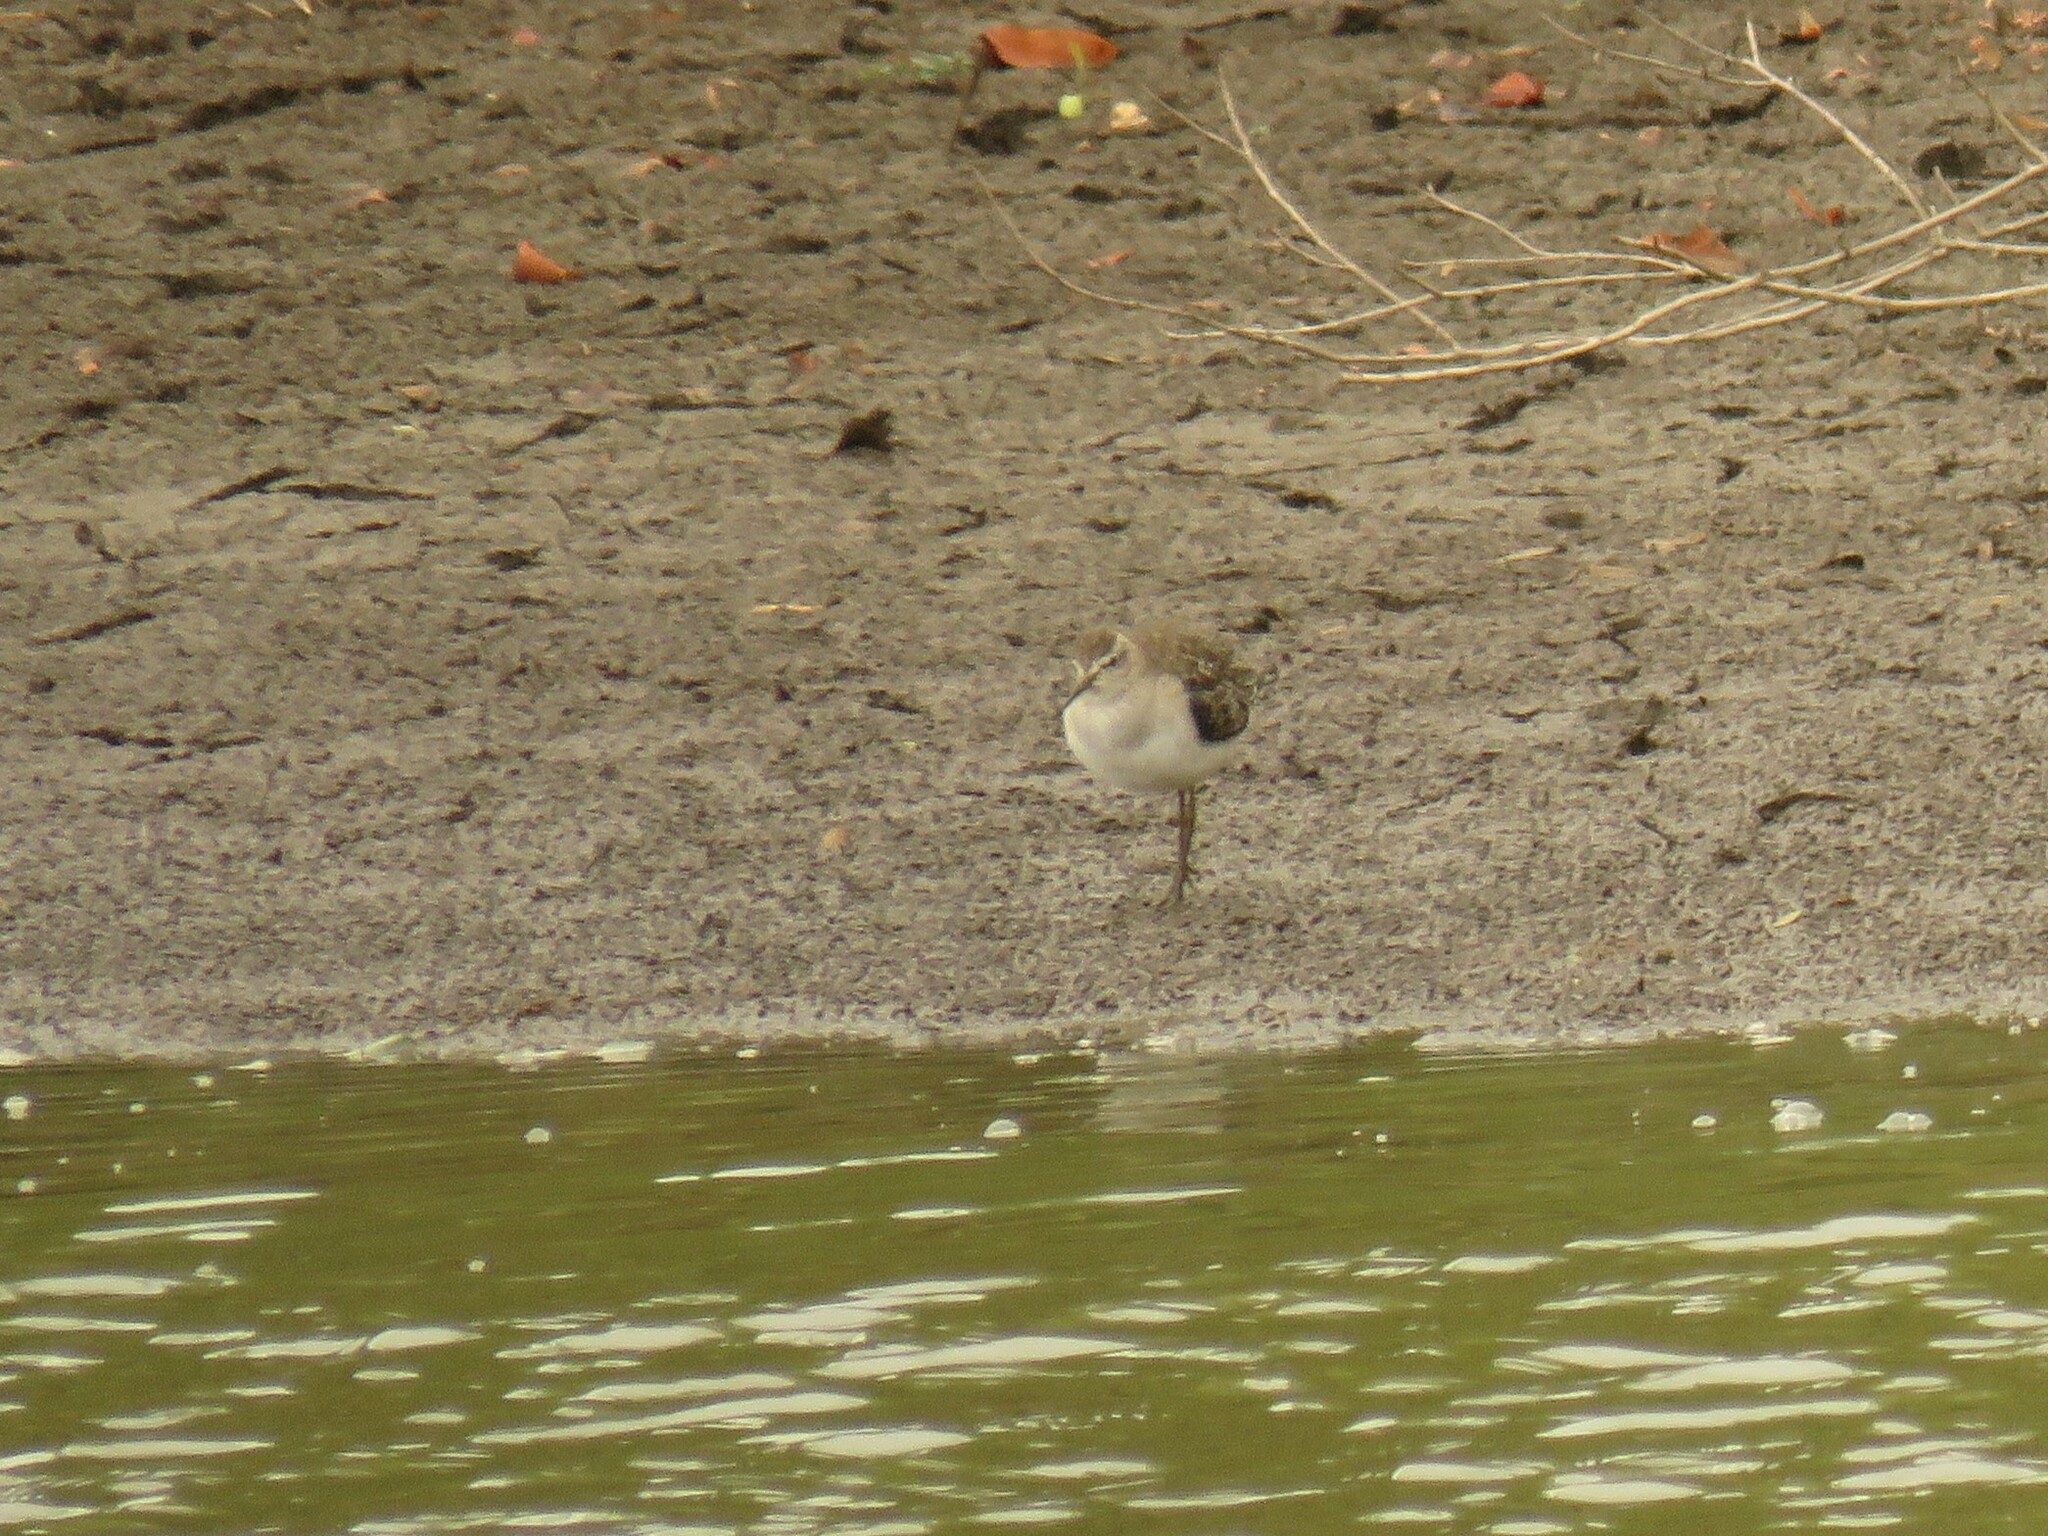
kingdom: Animalia
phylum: Chordata
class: Aves
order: Charadriiformes
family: Scolopacidae
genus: Tringa
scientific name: Tringa glareola
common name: Wood sandpiper
